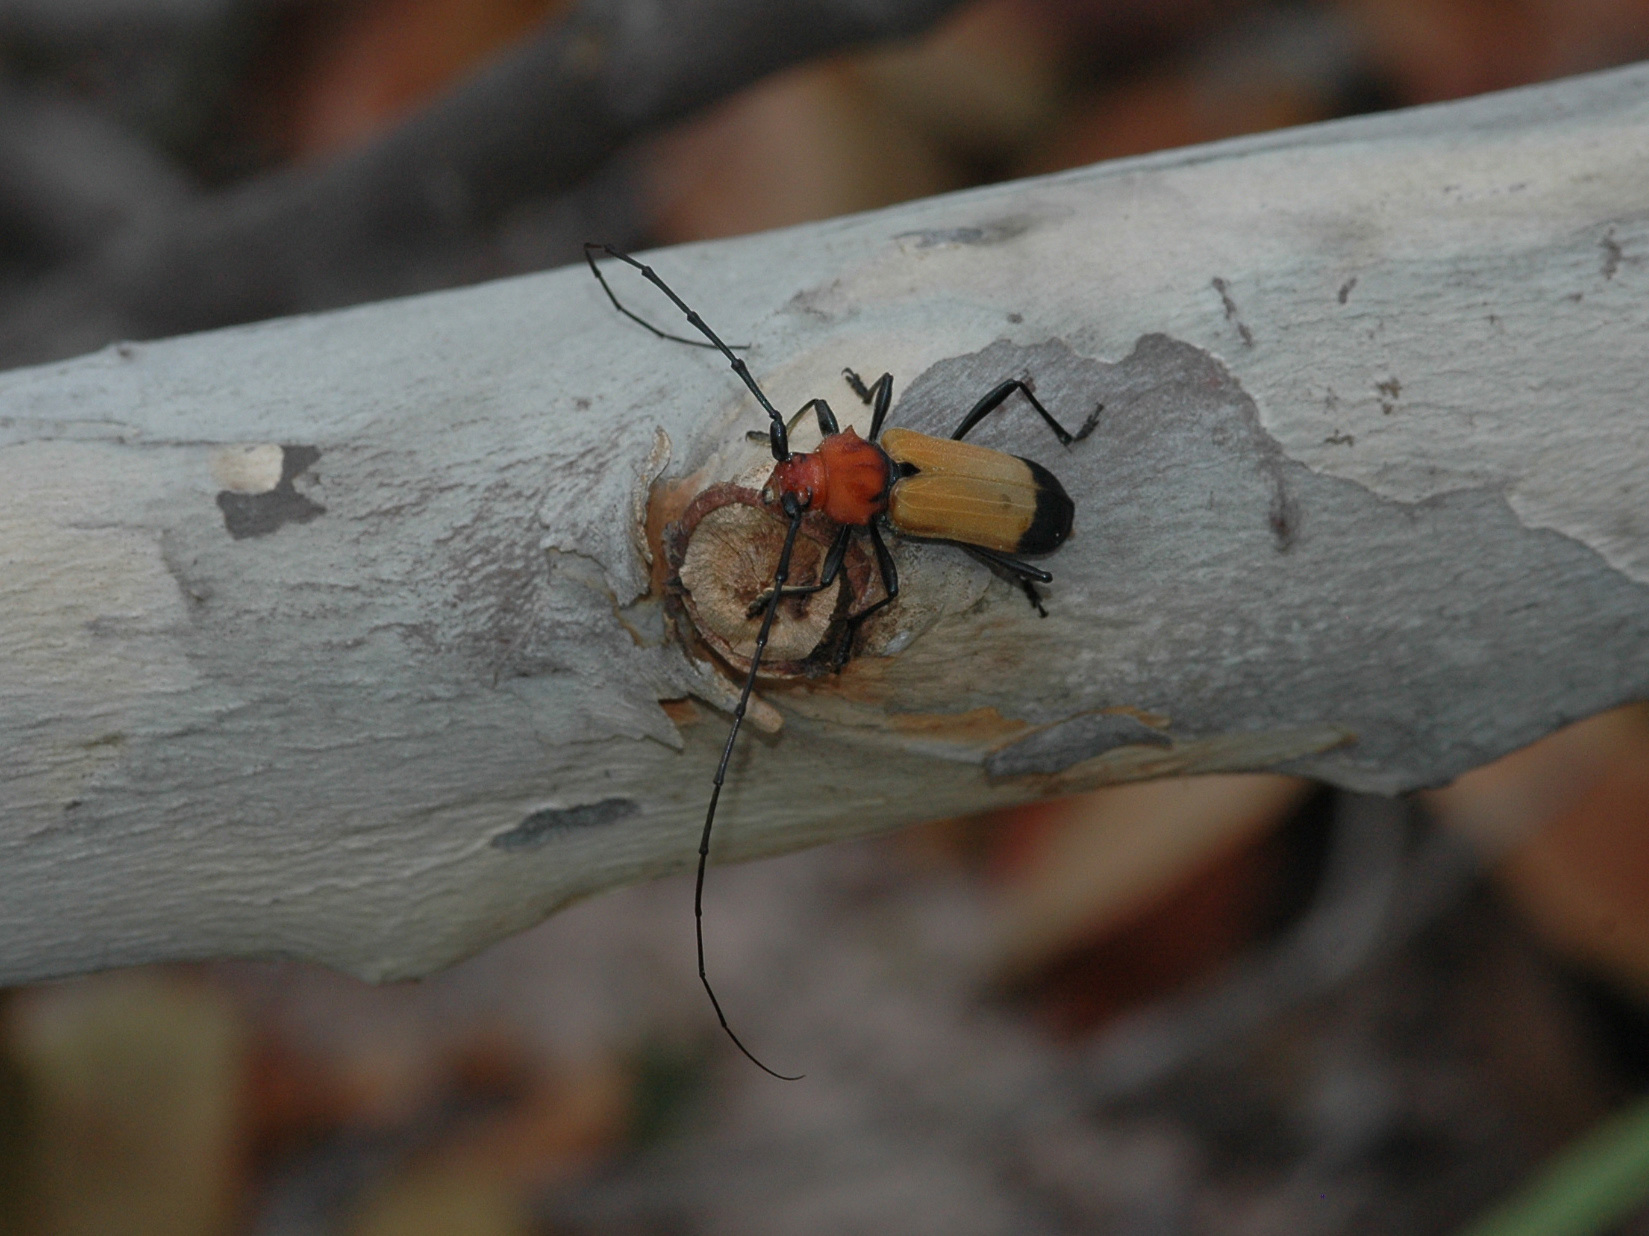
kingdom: Animalia
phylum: Arthropoda
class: Insecta
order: Coleoptera
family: Cerambycidae
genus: Purpuricenus
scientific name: Purpuricenus laetus
